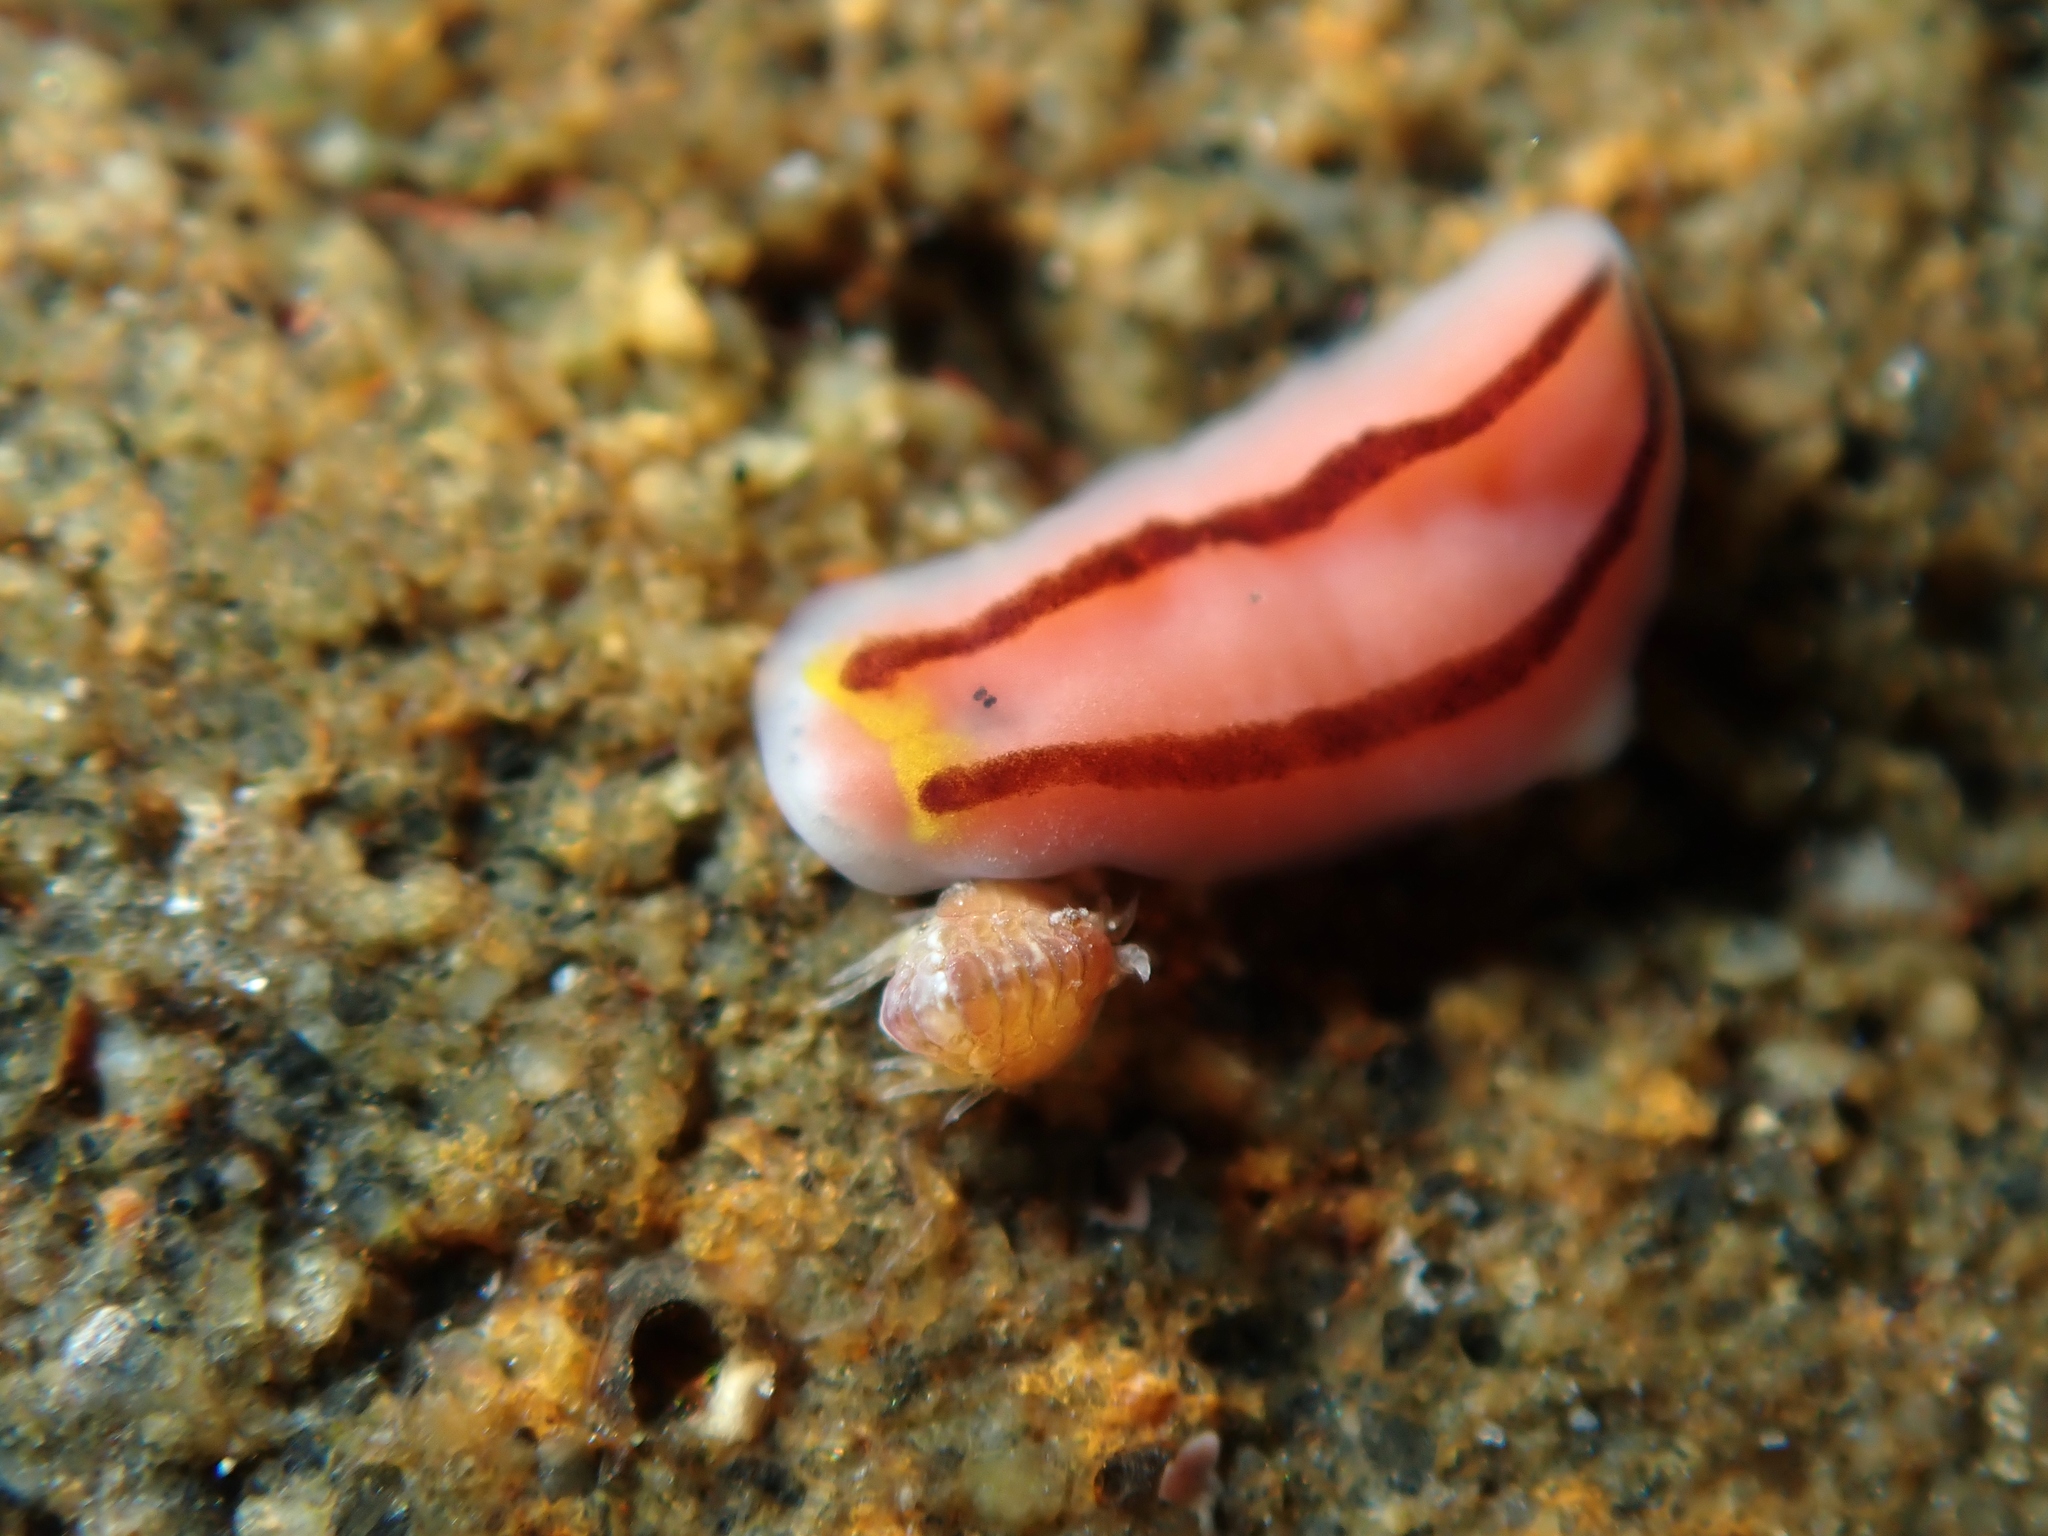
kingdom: Animalia
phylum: Platyhelminthes
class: Turbellaria
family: Chromoplanidae
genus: Chromoplana
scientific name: Chromoplana sirena
